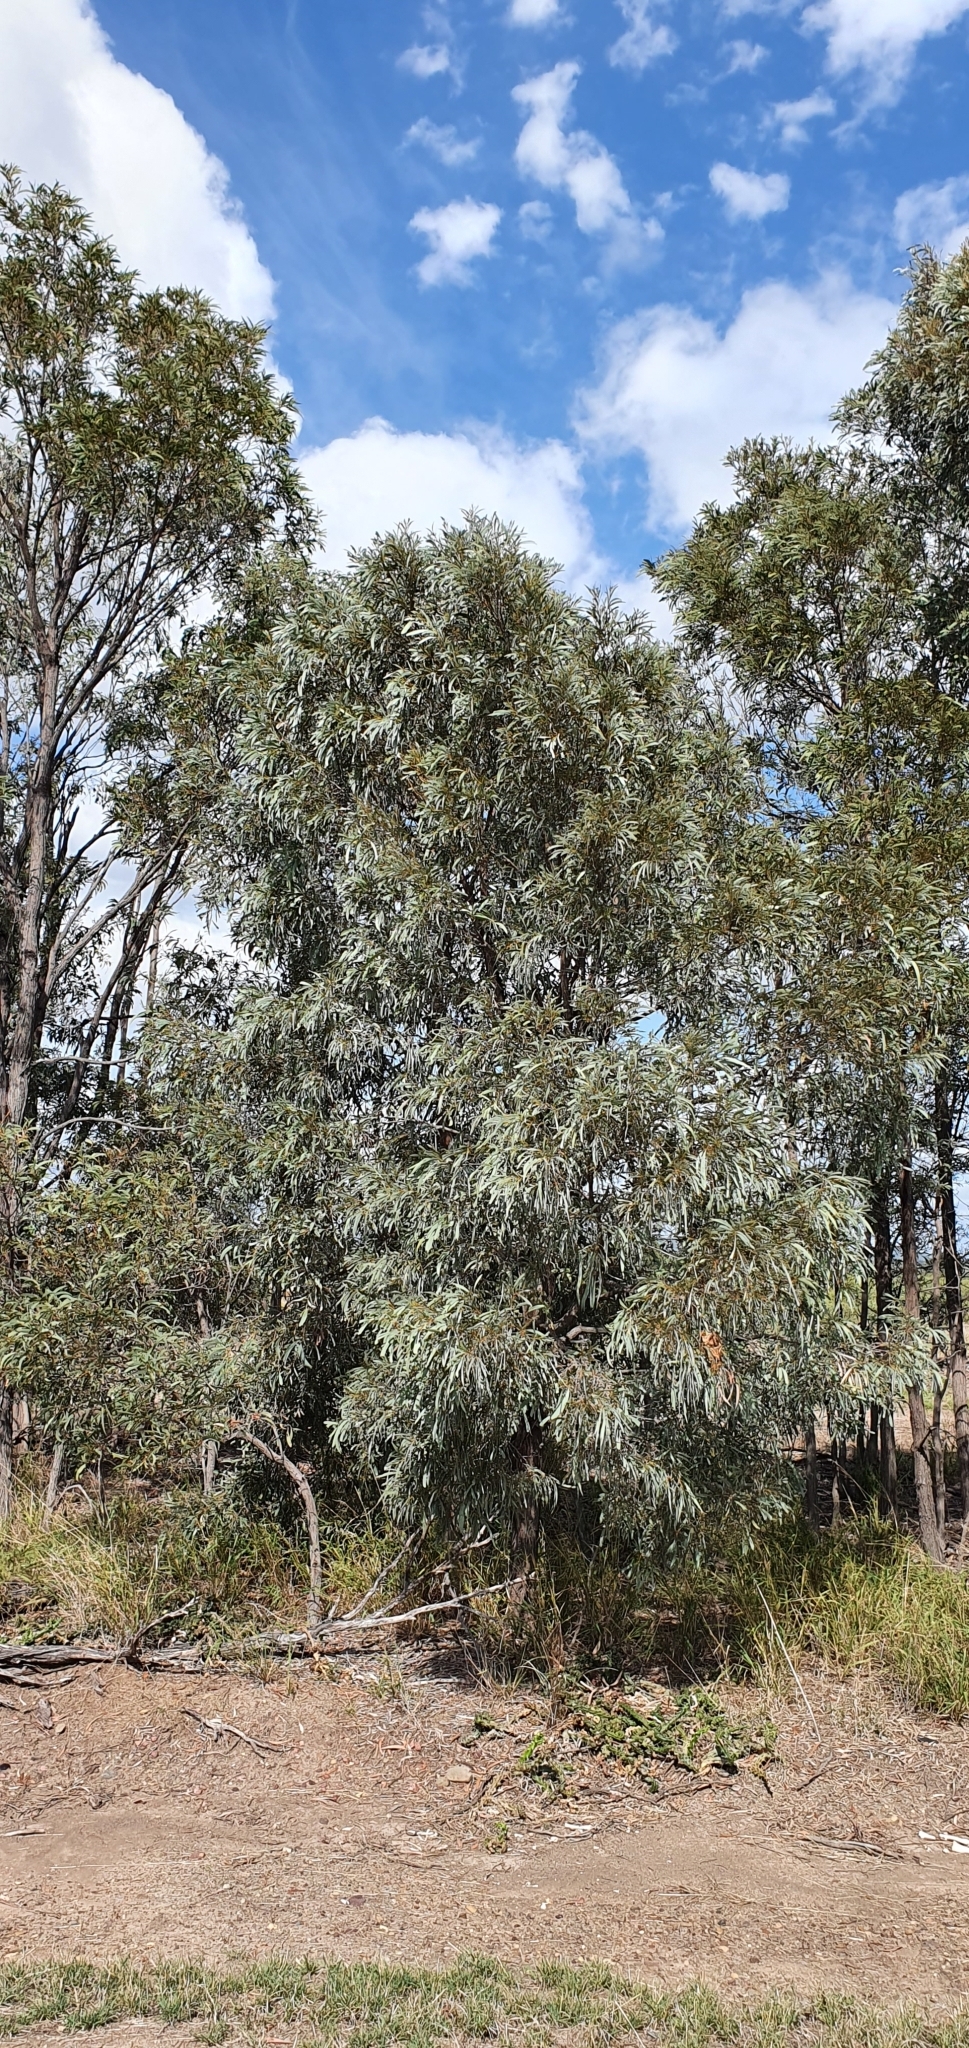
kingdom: Plantae
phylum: Tracheophyta
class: Magnoliopsida
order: Fabales
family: Fabaceae
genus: Acacia
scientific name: Acacia harpophylla
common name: Brigalow
